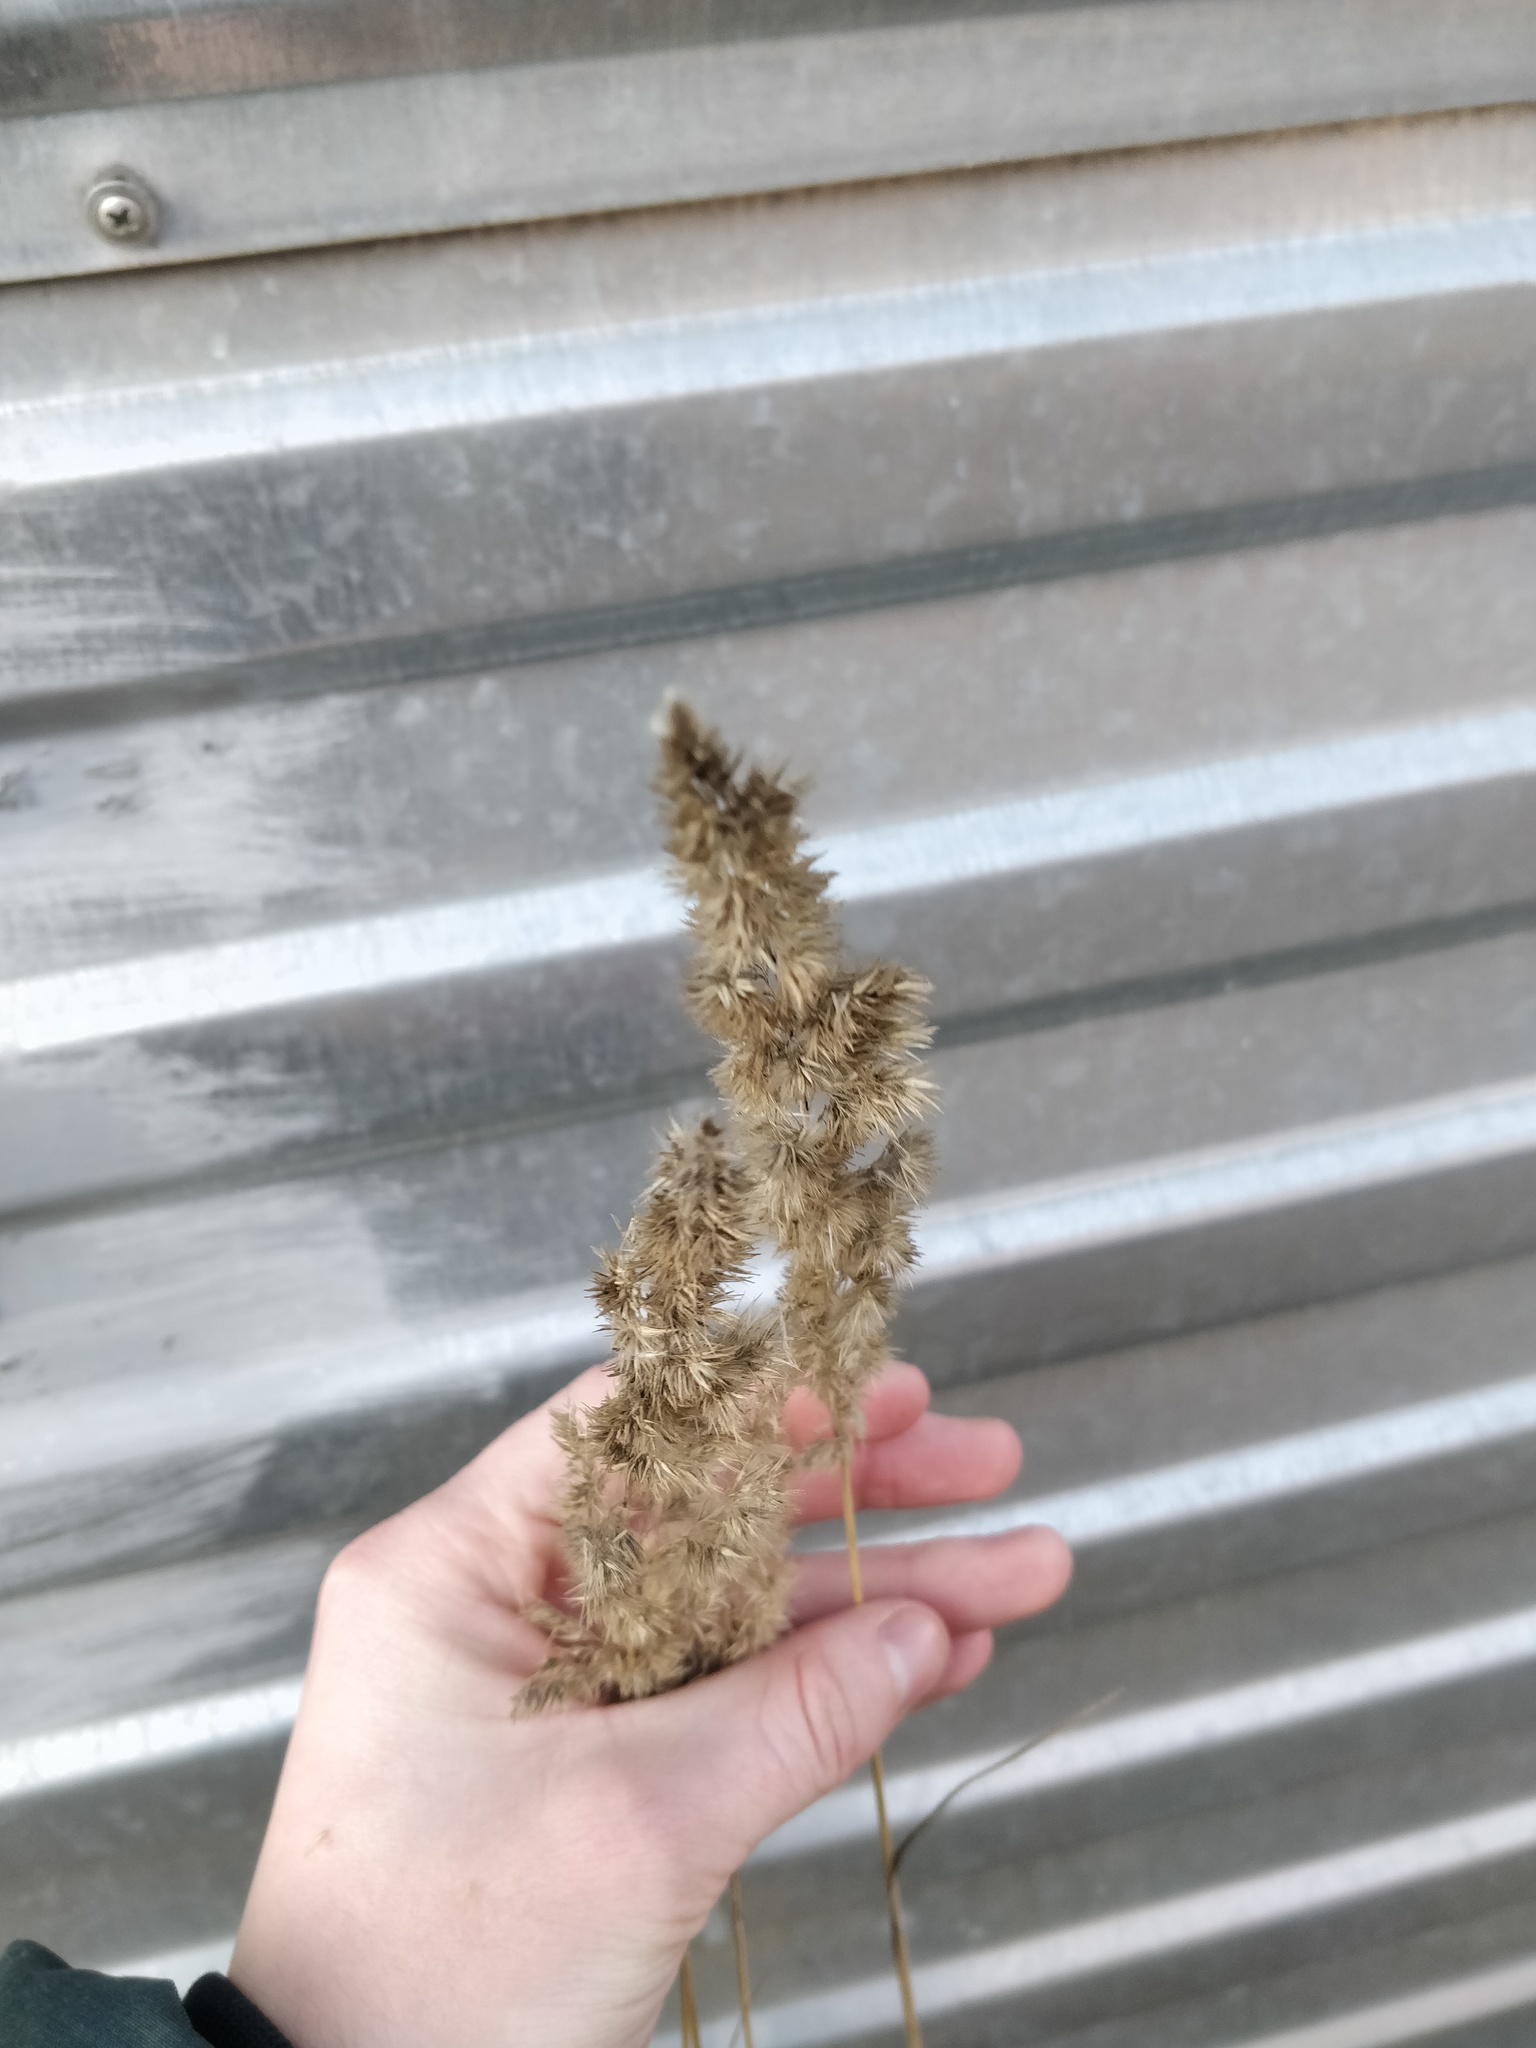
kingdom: Plantae
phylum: Tracheophyta
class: Liliopsida
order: Poales
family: Poaceae
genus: Calamagrostis
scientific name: Calamagrostis epigejos
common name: Wood small-reed
